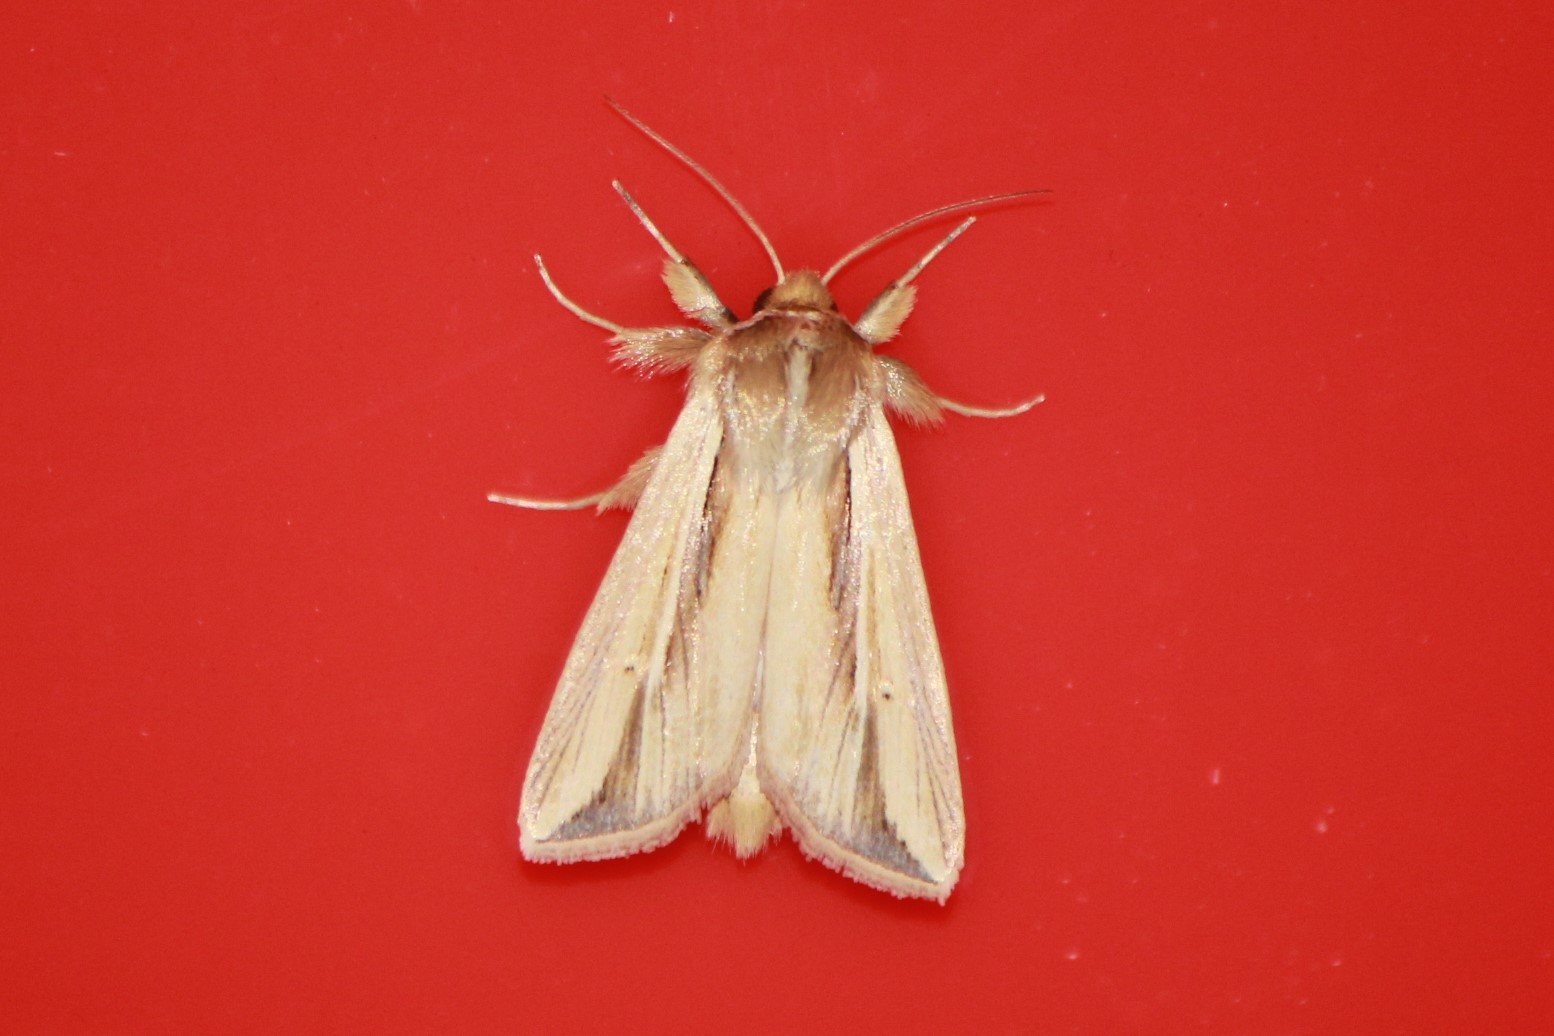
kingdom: Animalia
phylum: Arthropoda
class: Insecta
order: Lepidoptera
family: Noctuidae
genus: Dargida
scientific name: Dargida diffusa
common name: Wheat head armyworm
